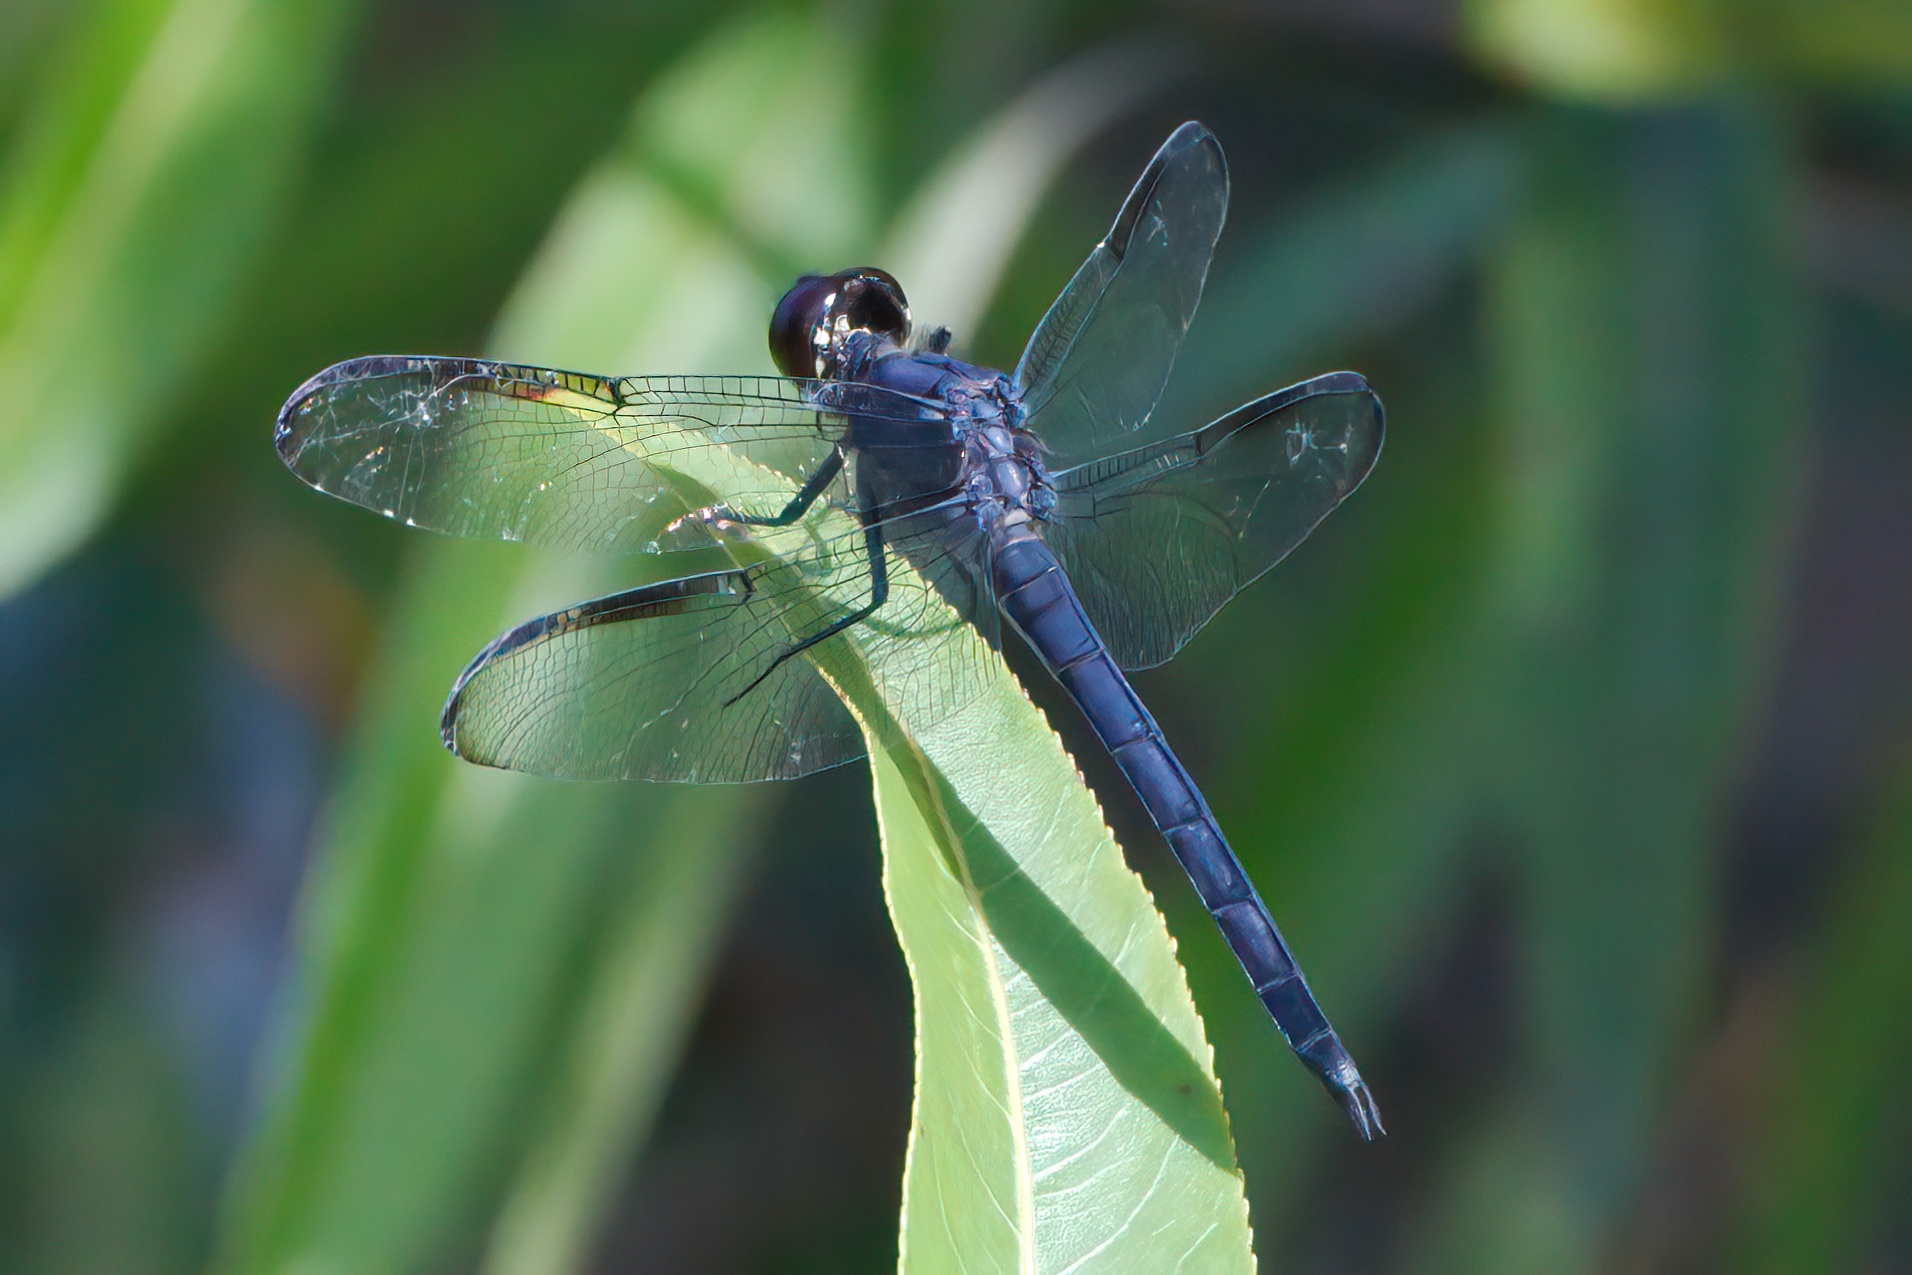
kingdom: Animalia
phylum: Arthropoda
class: Insecta
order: Odonata
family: Libellulidae
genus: Libellula
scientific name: Libellula incesta
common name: Slaty skimmer
